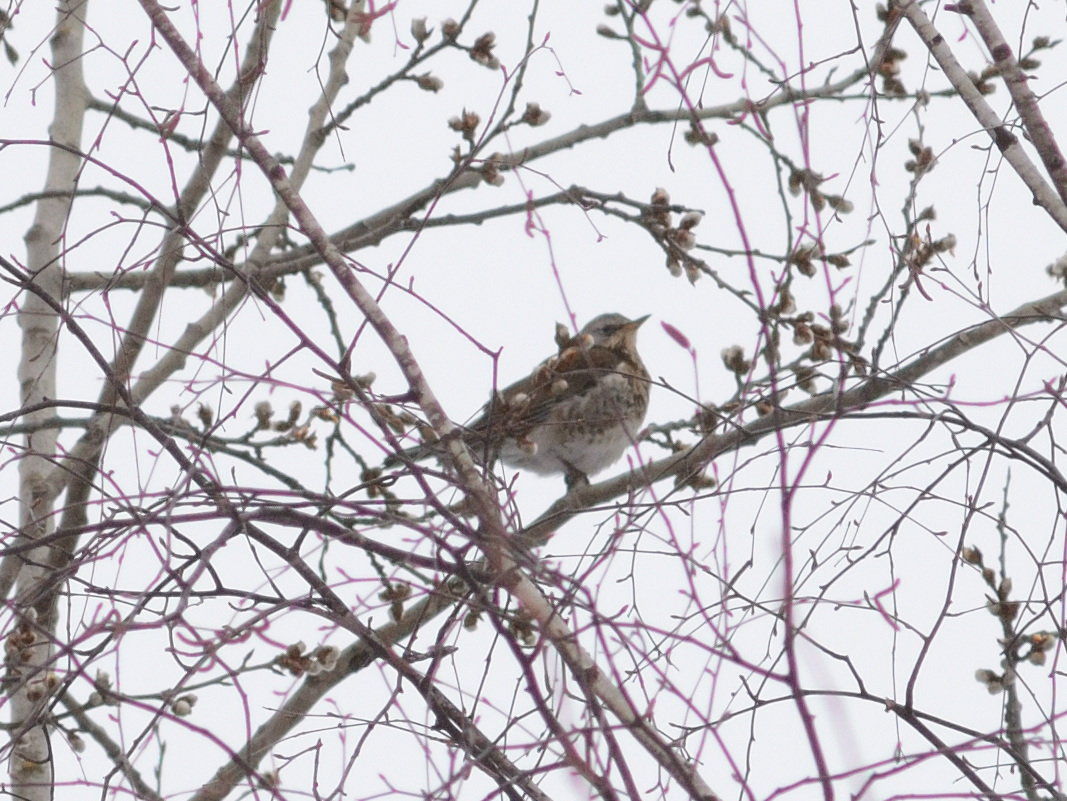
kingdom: Animalia
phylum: Chordata
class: Aves
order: Passeriformes
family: Turdidae
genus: Turdus
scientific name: Turdus pilaris
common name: Fieldfare
